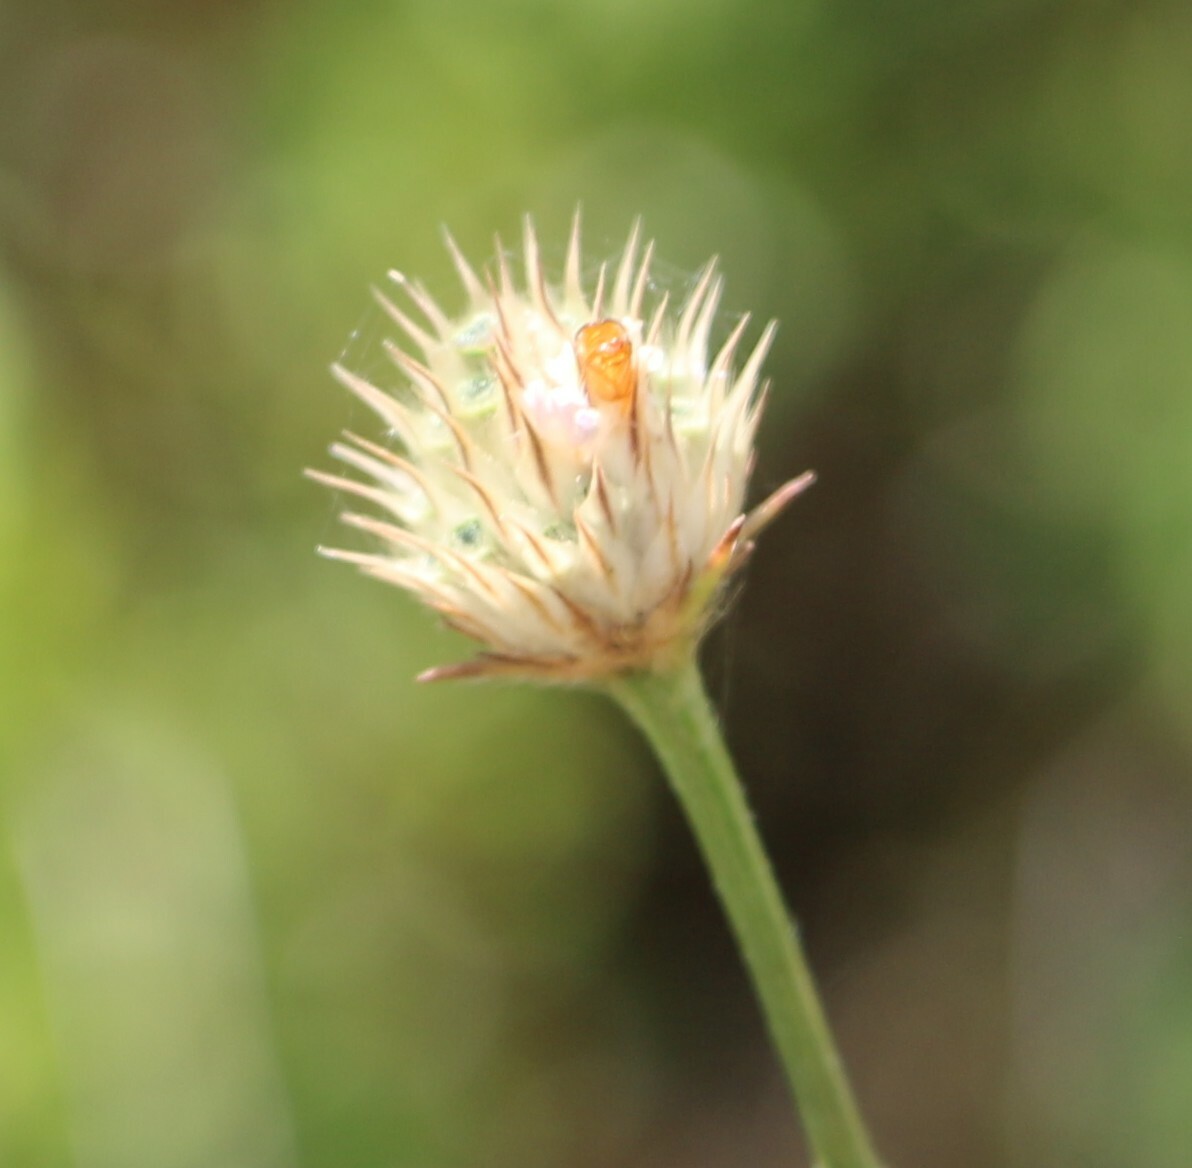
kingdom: Plantae
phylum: Tracheophyta
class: Magnoliopsida
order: Dipsacales
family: Caprifoliaceae
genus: Cephalaria
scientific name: Cephalaria transsylvanica
